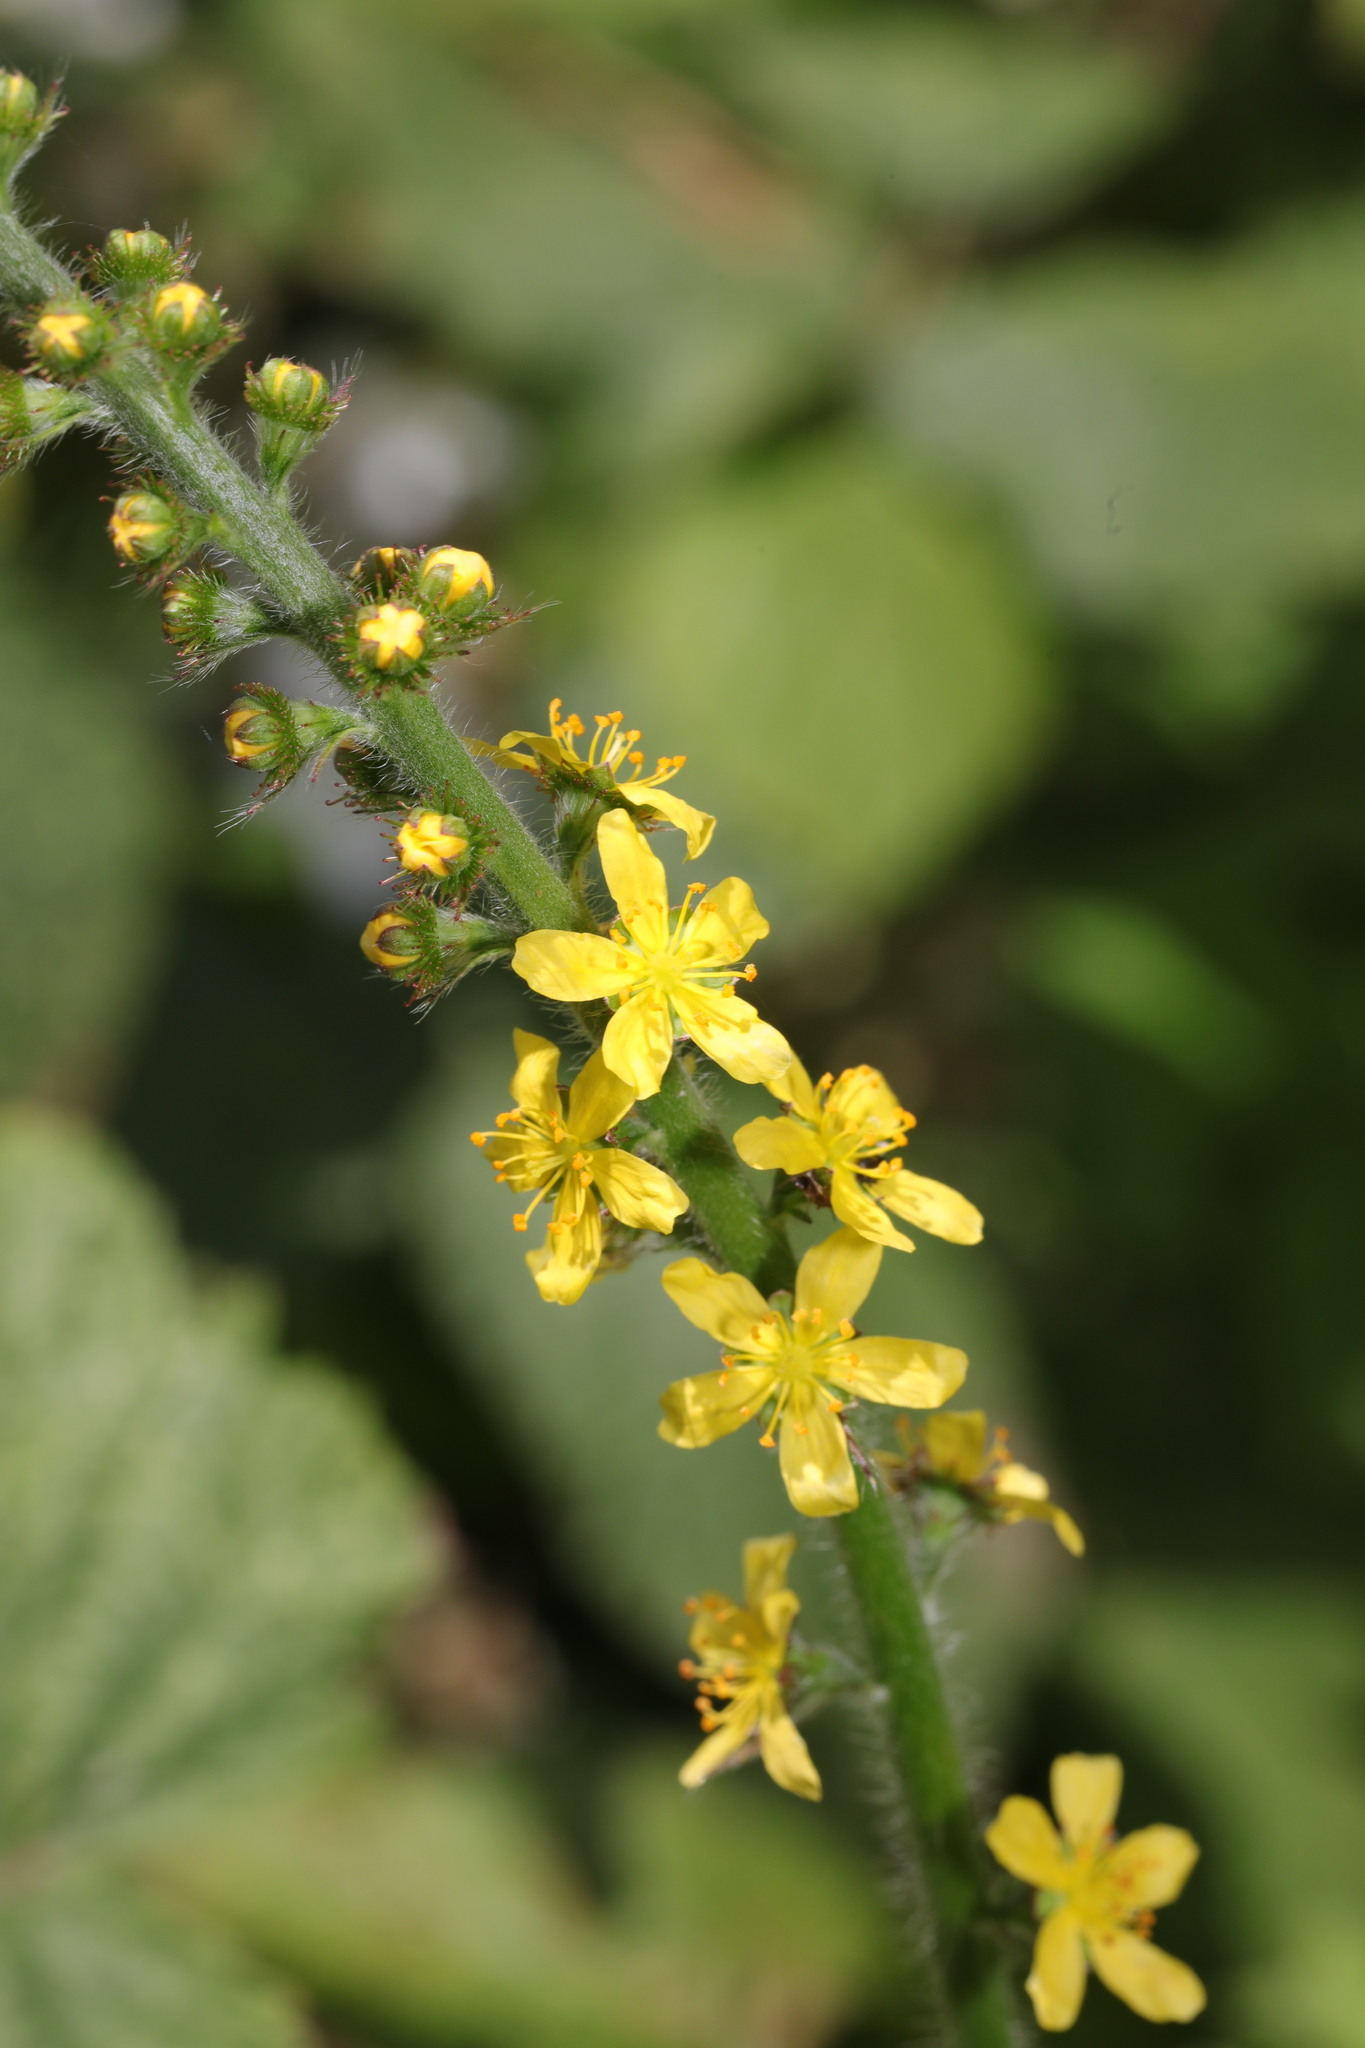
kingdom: Plantae
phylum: Tracheophyta
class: Magnoliopsida
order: Rosales
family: Rosaceae
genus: Agrimonia
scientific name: Agrimonia eupatoria
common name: Agrimony
